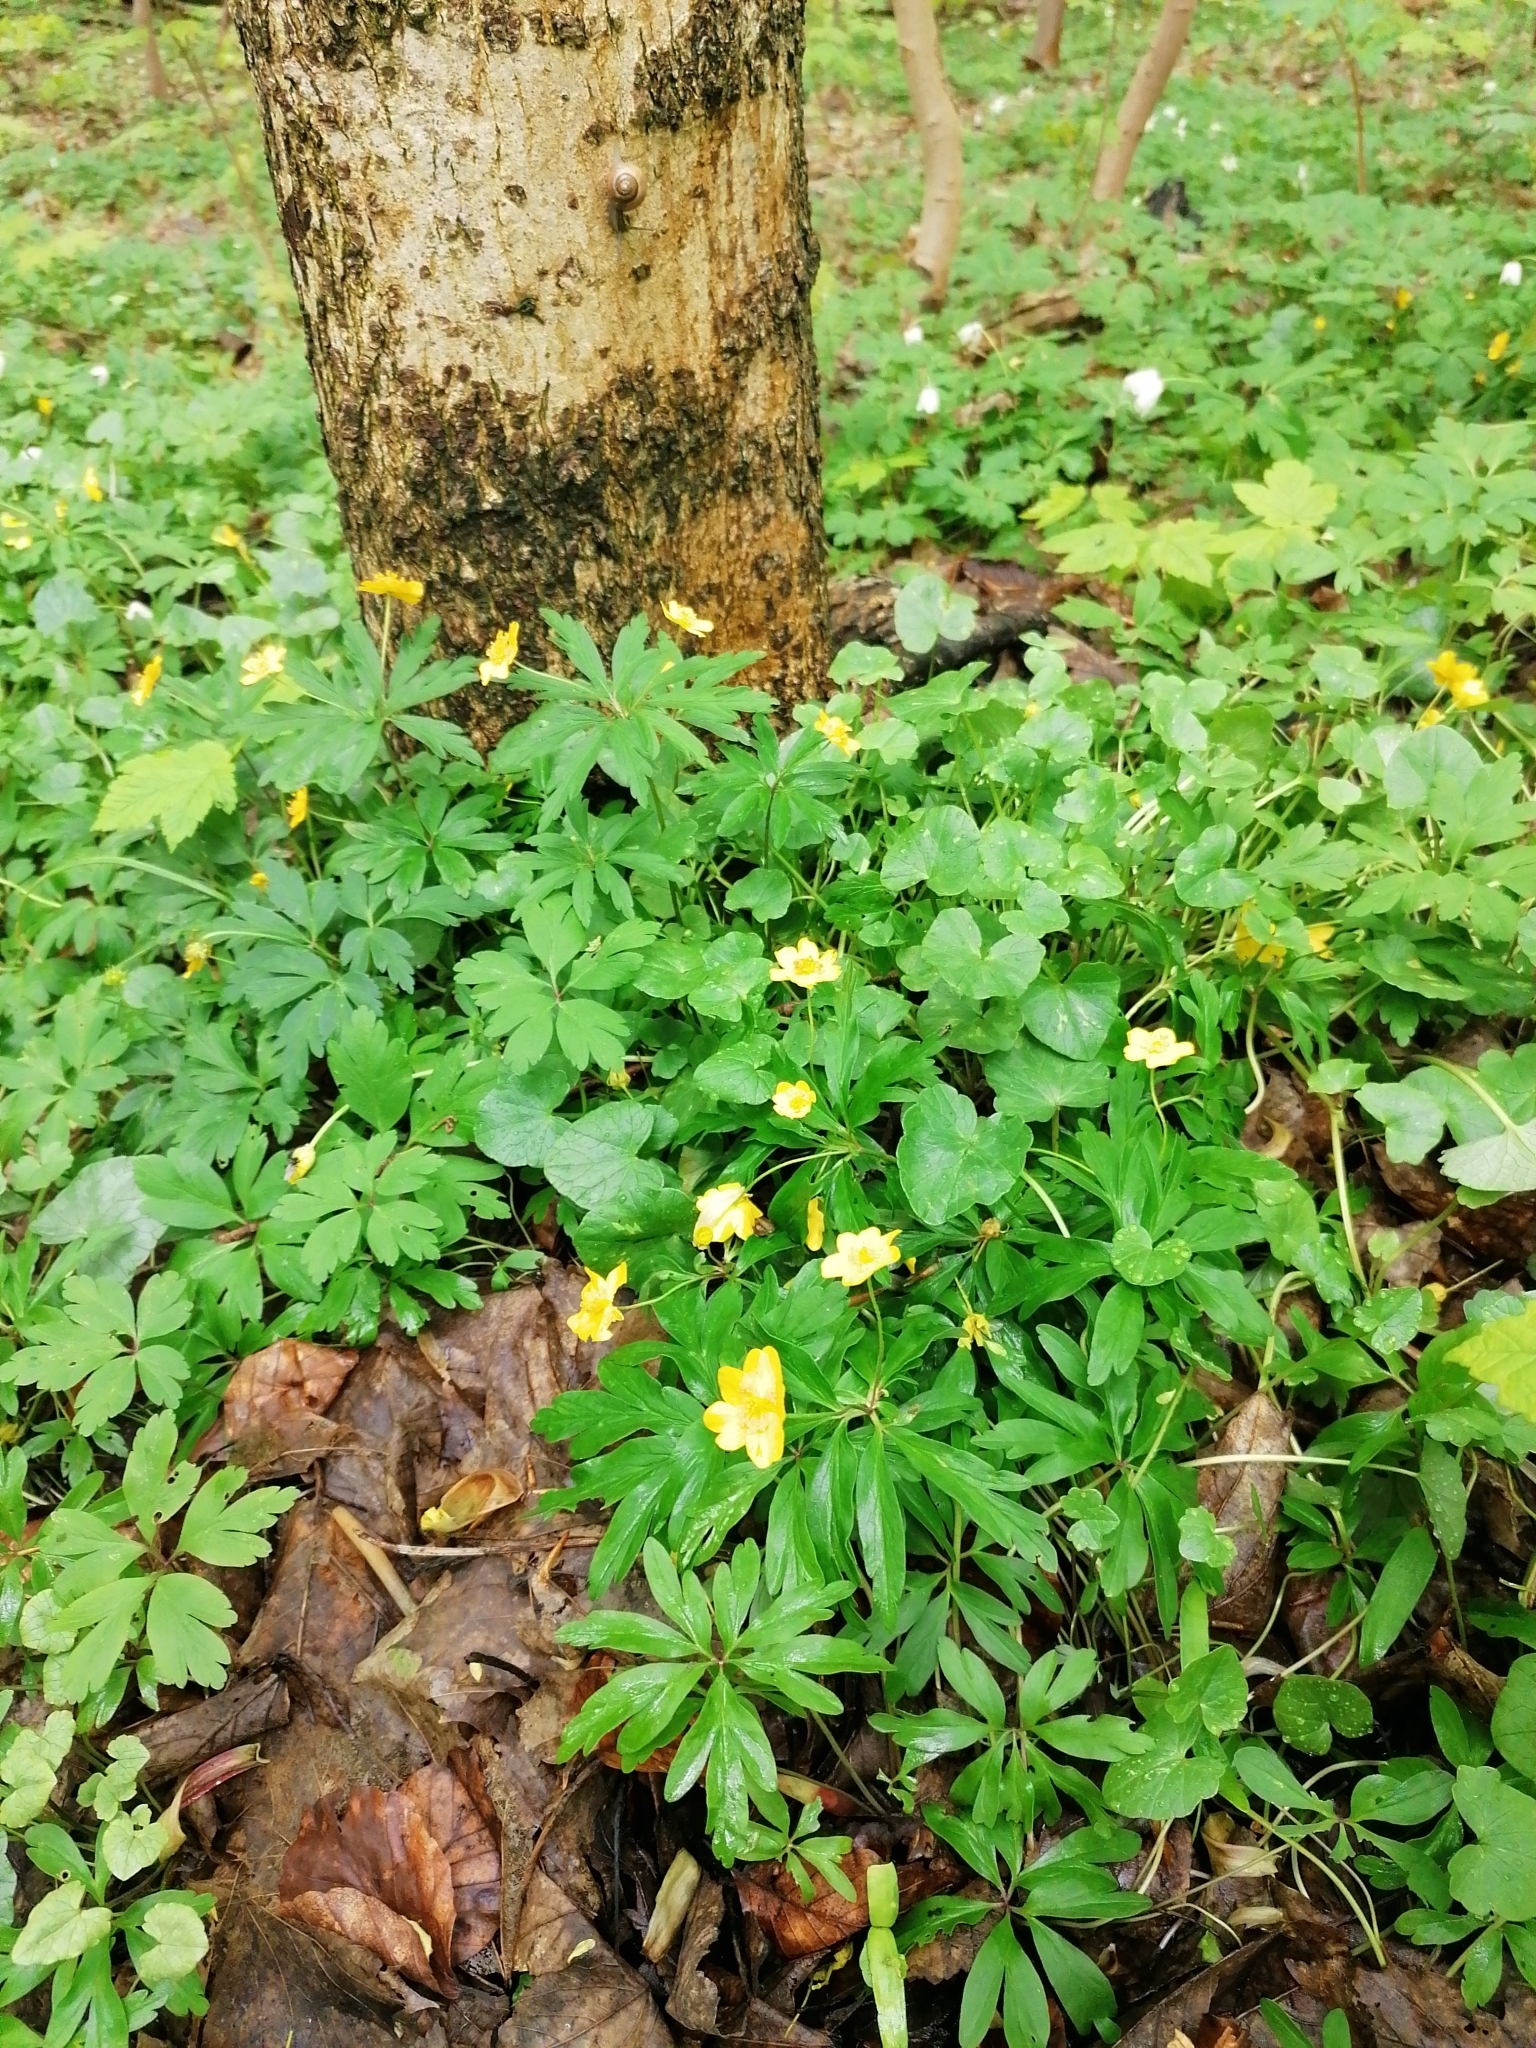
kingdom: Plantae
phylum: Tracheophyta
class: Magnoliopsida
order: Ranunculales
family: Ranunculaceae
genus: Anemone
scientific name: Anemone ranunculoides
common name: Yellow anemone
